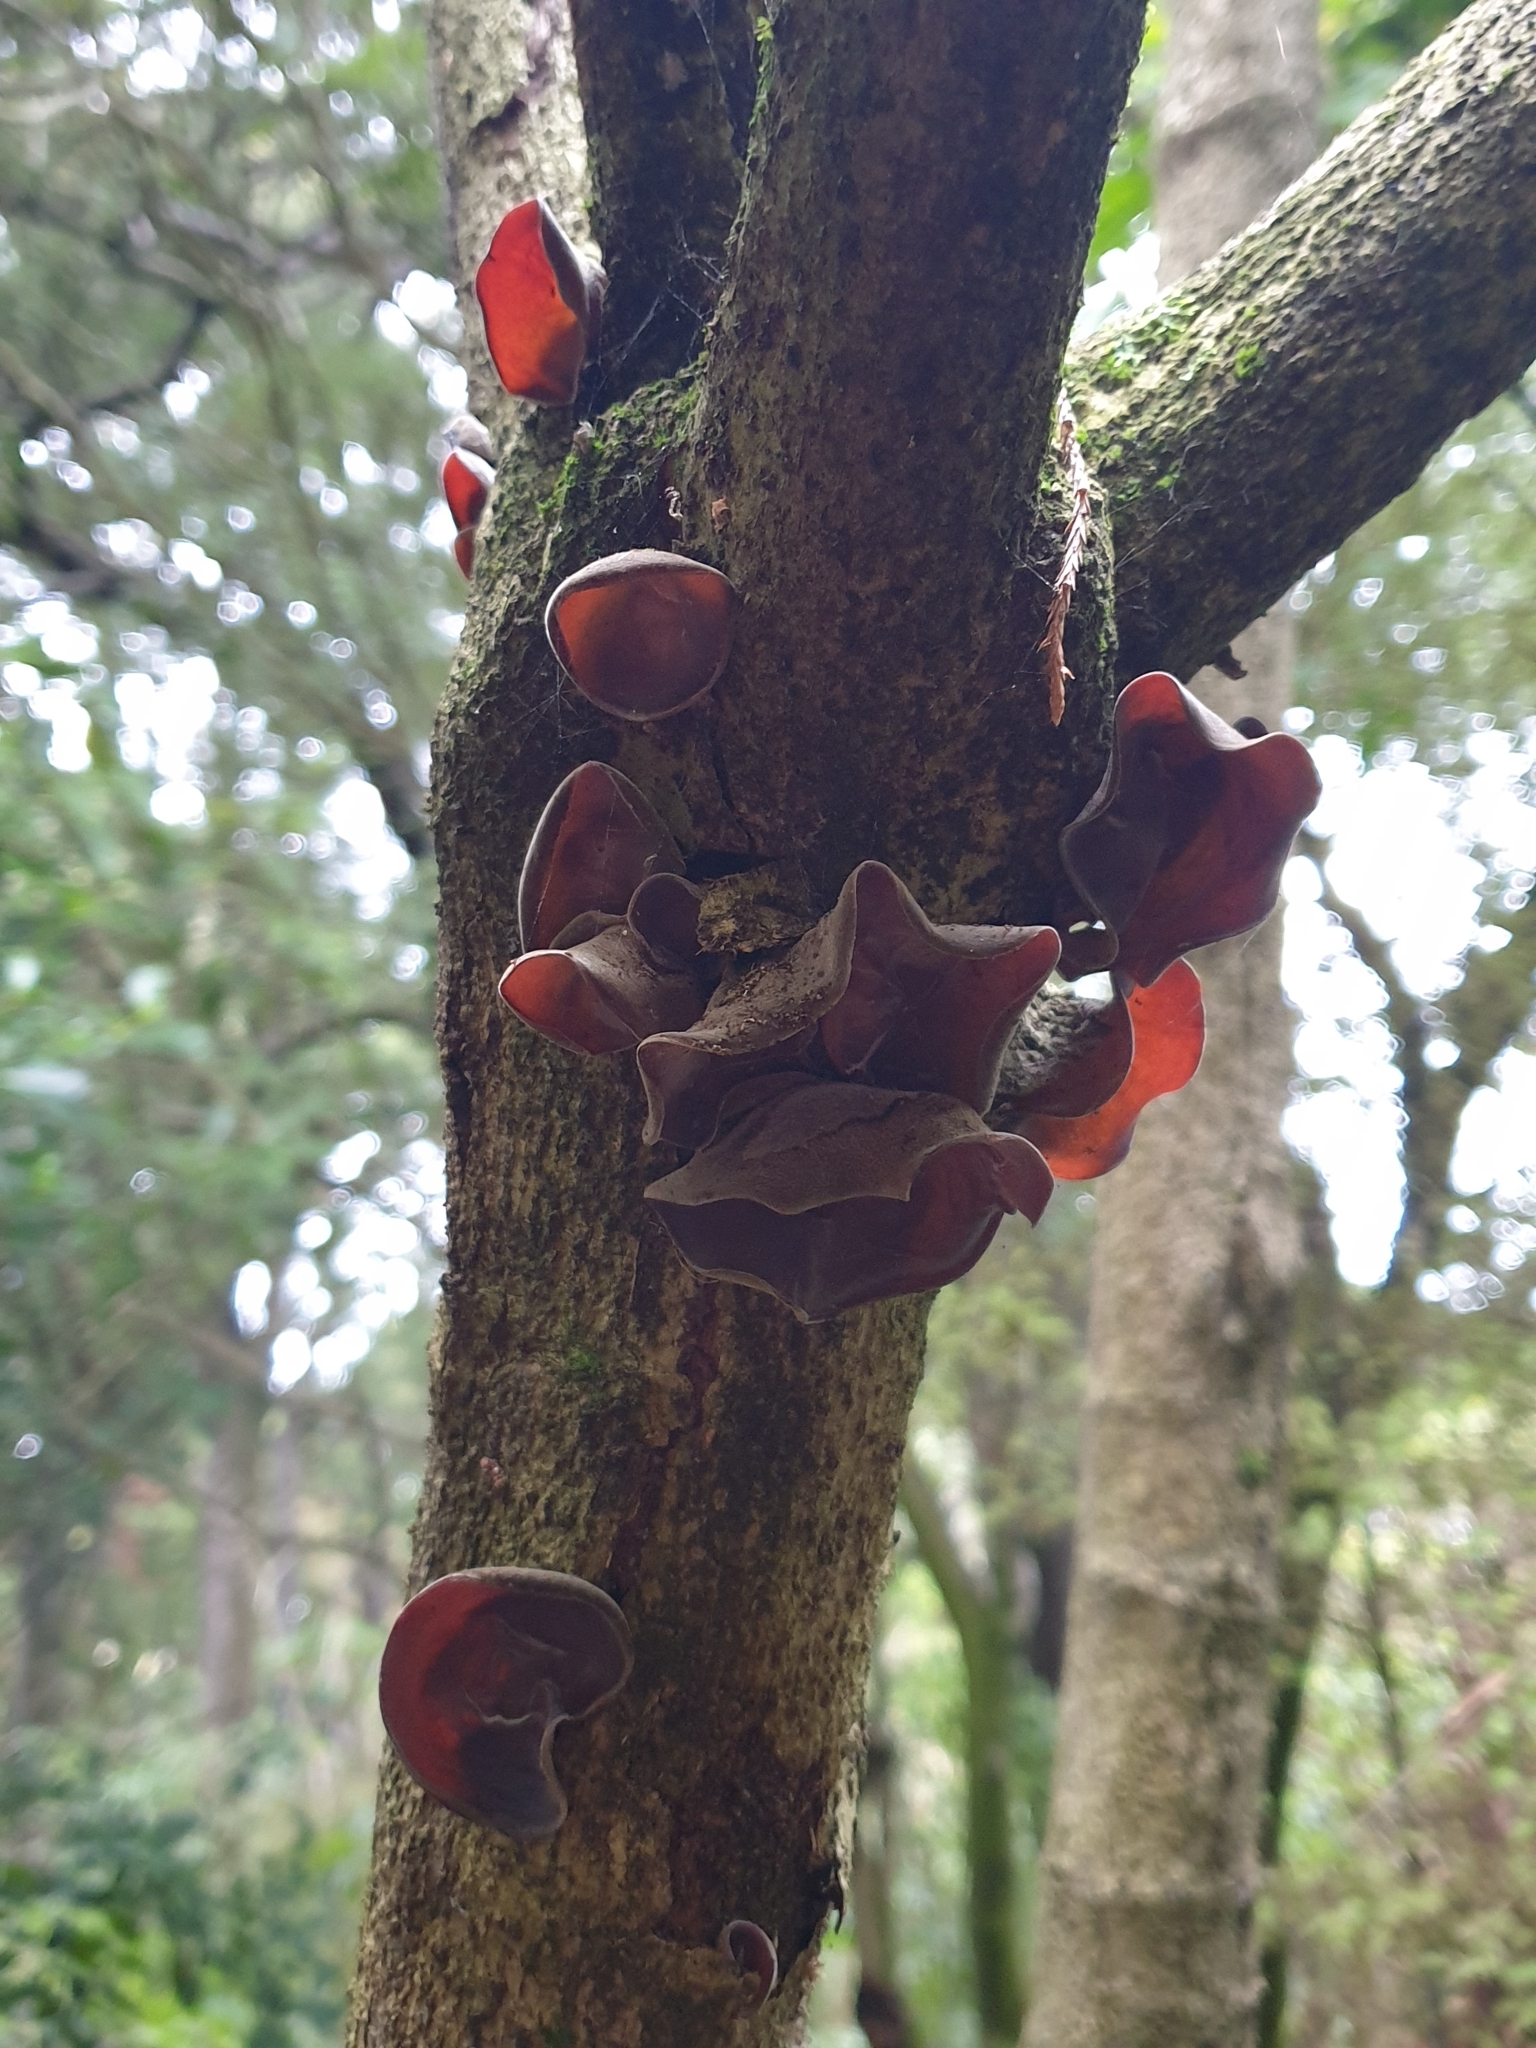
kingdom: Fungi
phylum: Basidiomycota
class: Agaricomycetes
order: Auriculariales
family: Auriculariaceae
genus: Auricularia
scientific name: Auricularia cornea
